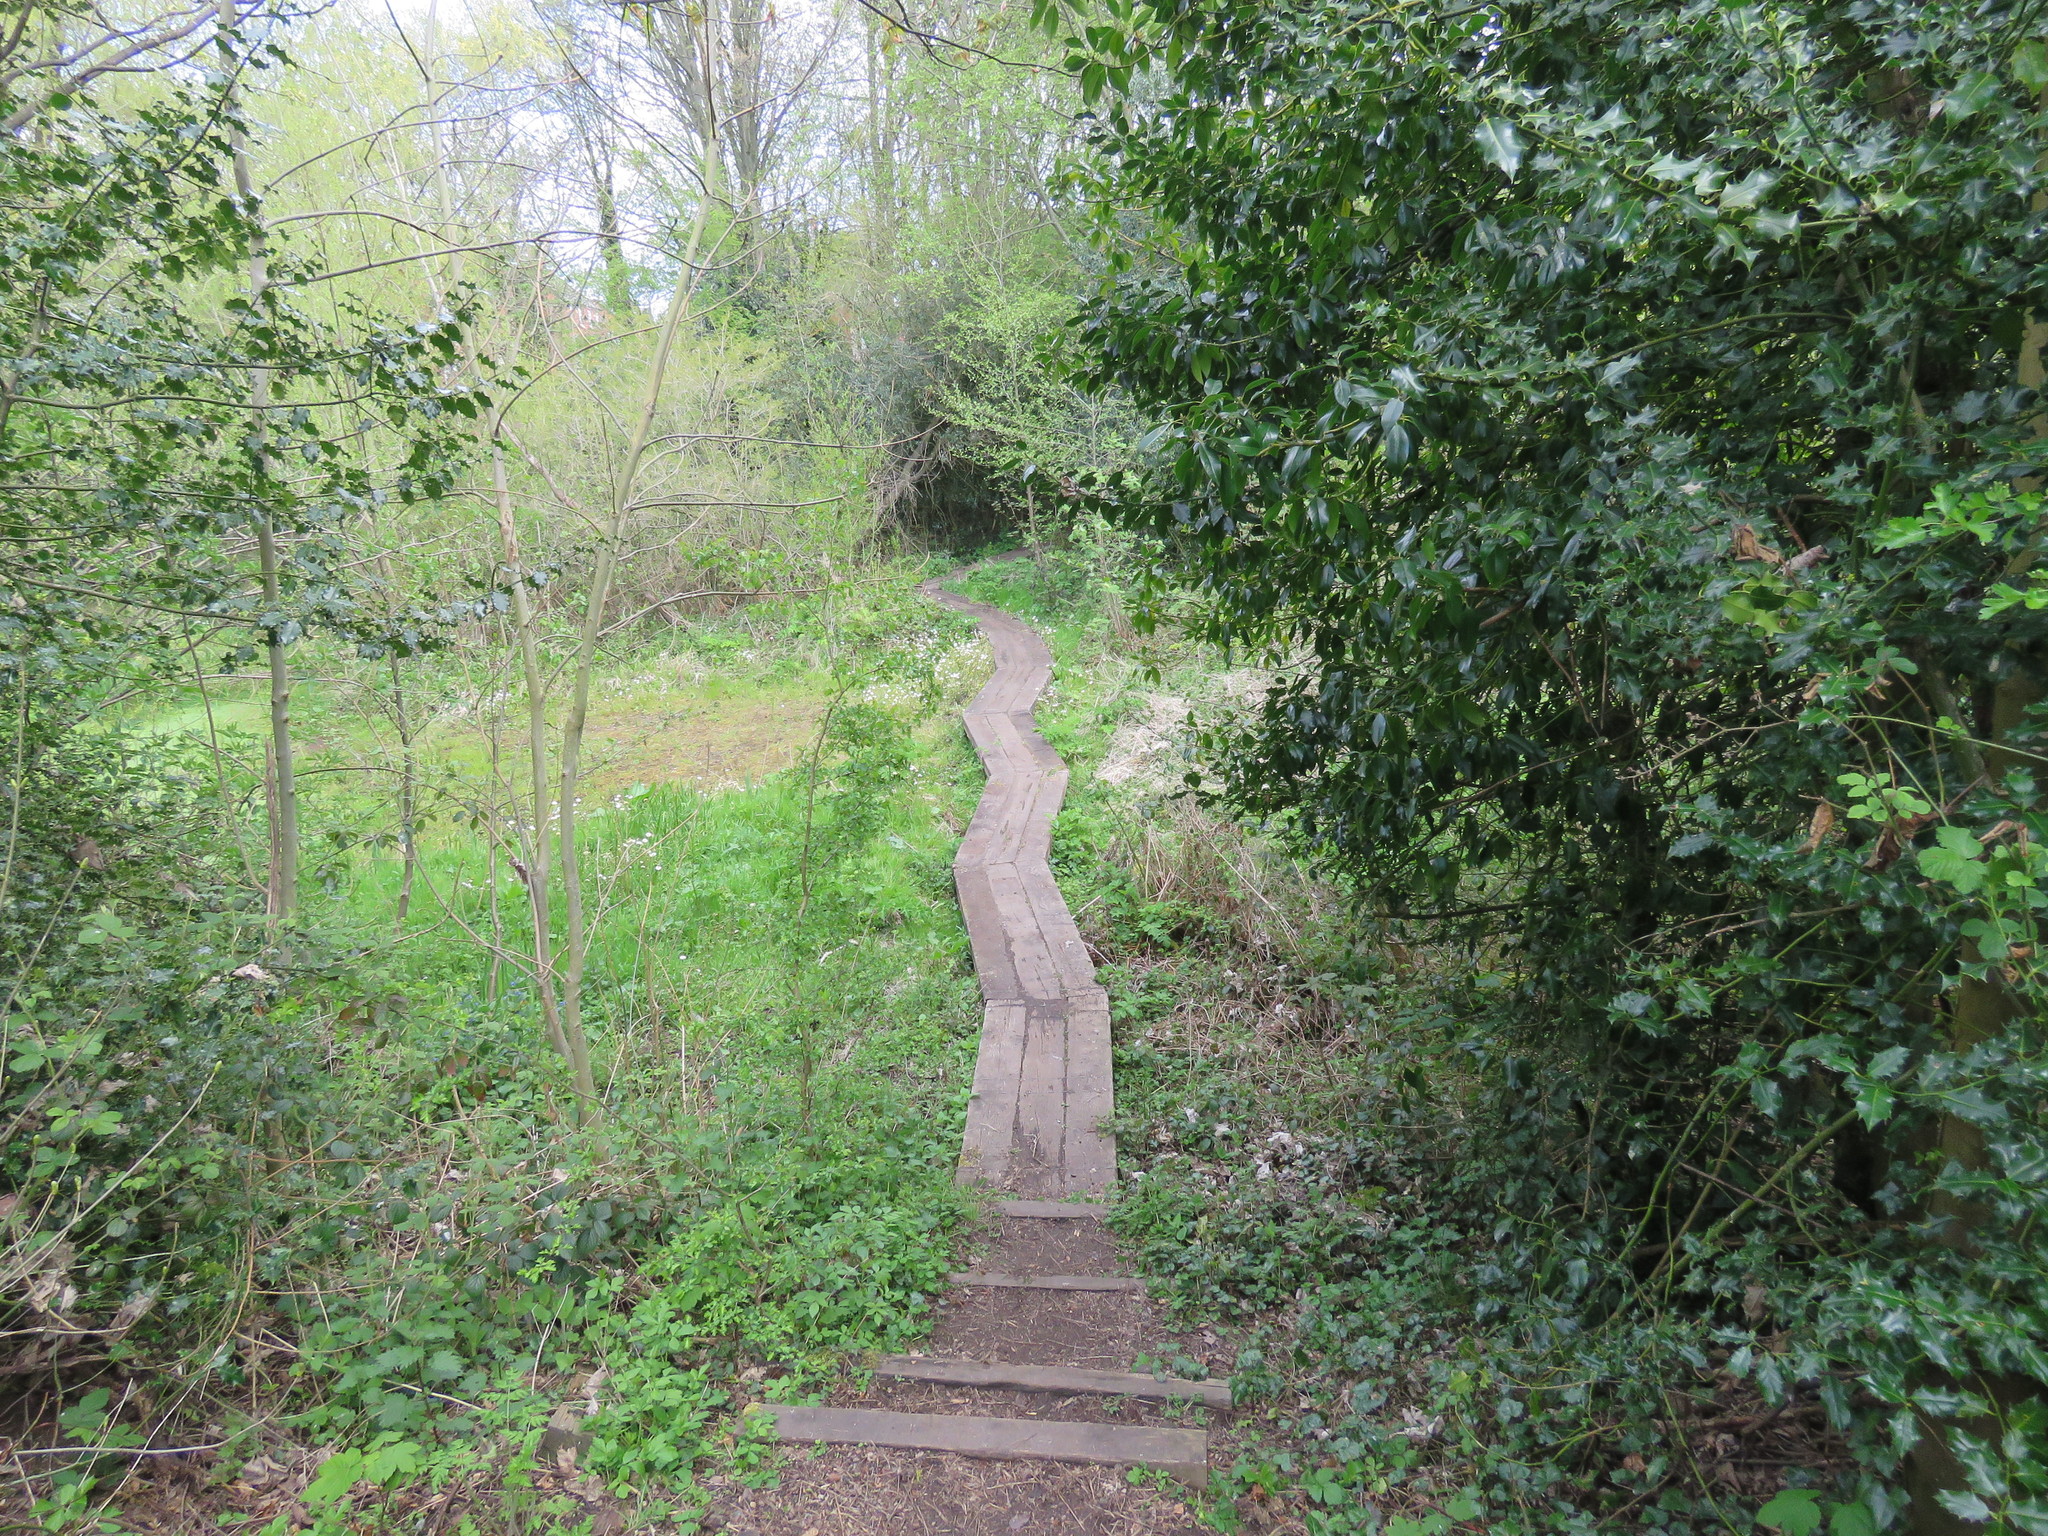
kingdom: Plantae
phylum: Tracheophyta
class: Magnoliopsida
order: Aquifoliales
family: Aquifoliaceae
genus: Ilex
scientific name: Ilex aquifolium
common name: English holly
